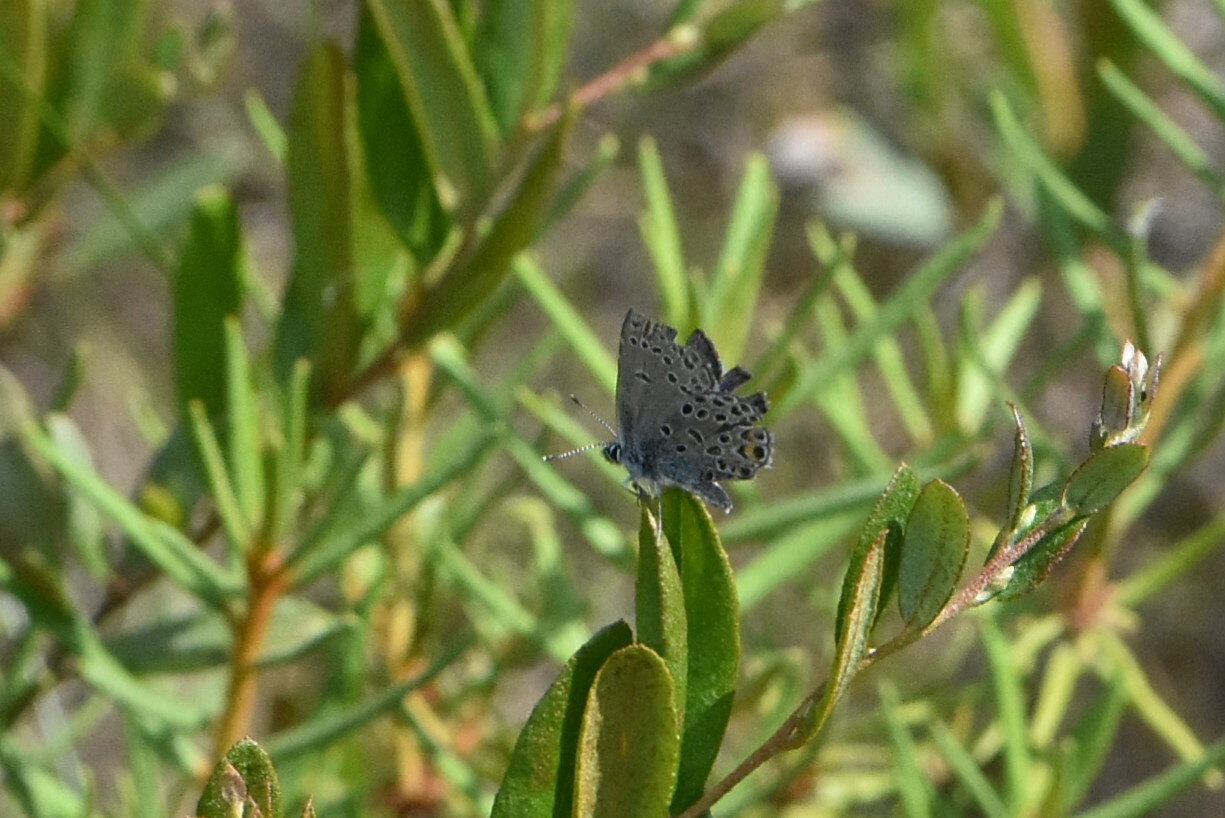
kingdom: Animalia
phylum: Arthropoda
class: Insecta
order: Lepidoptera
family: Lycaenidae
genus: Vacciniina
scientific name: Vacciniina optilete
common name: Cranberry blue
